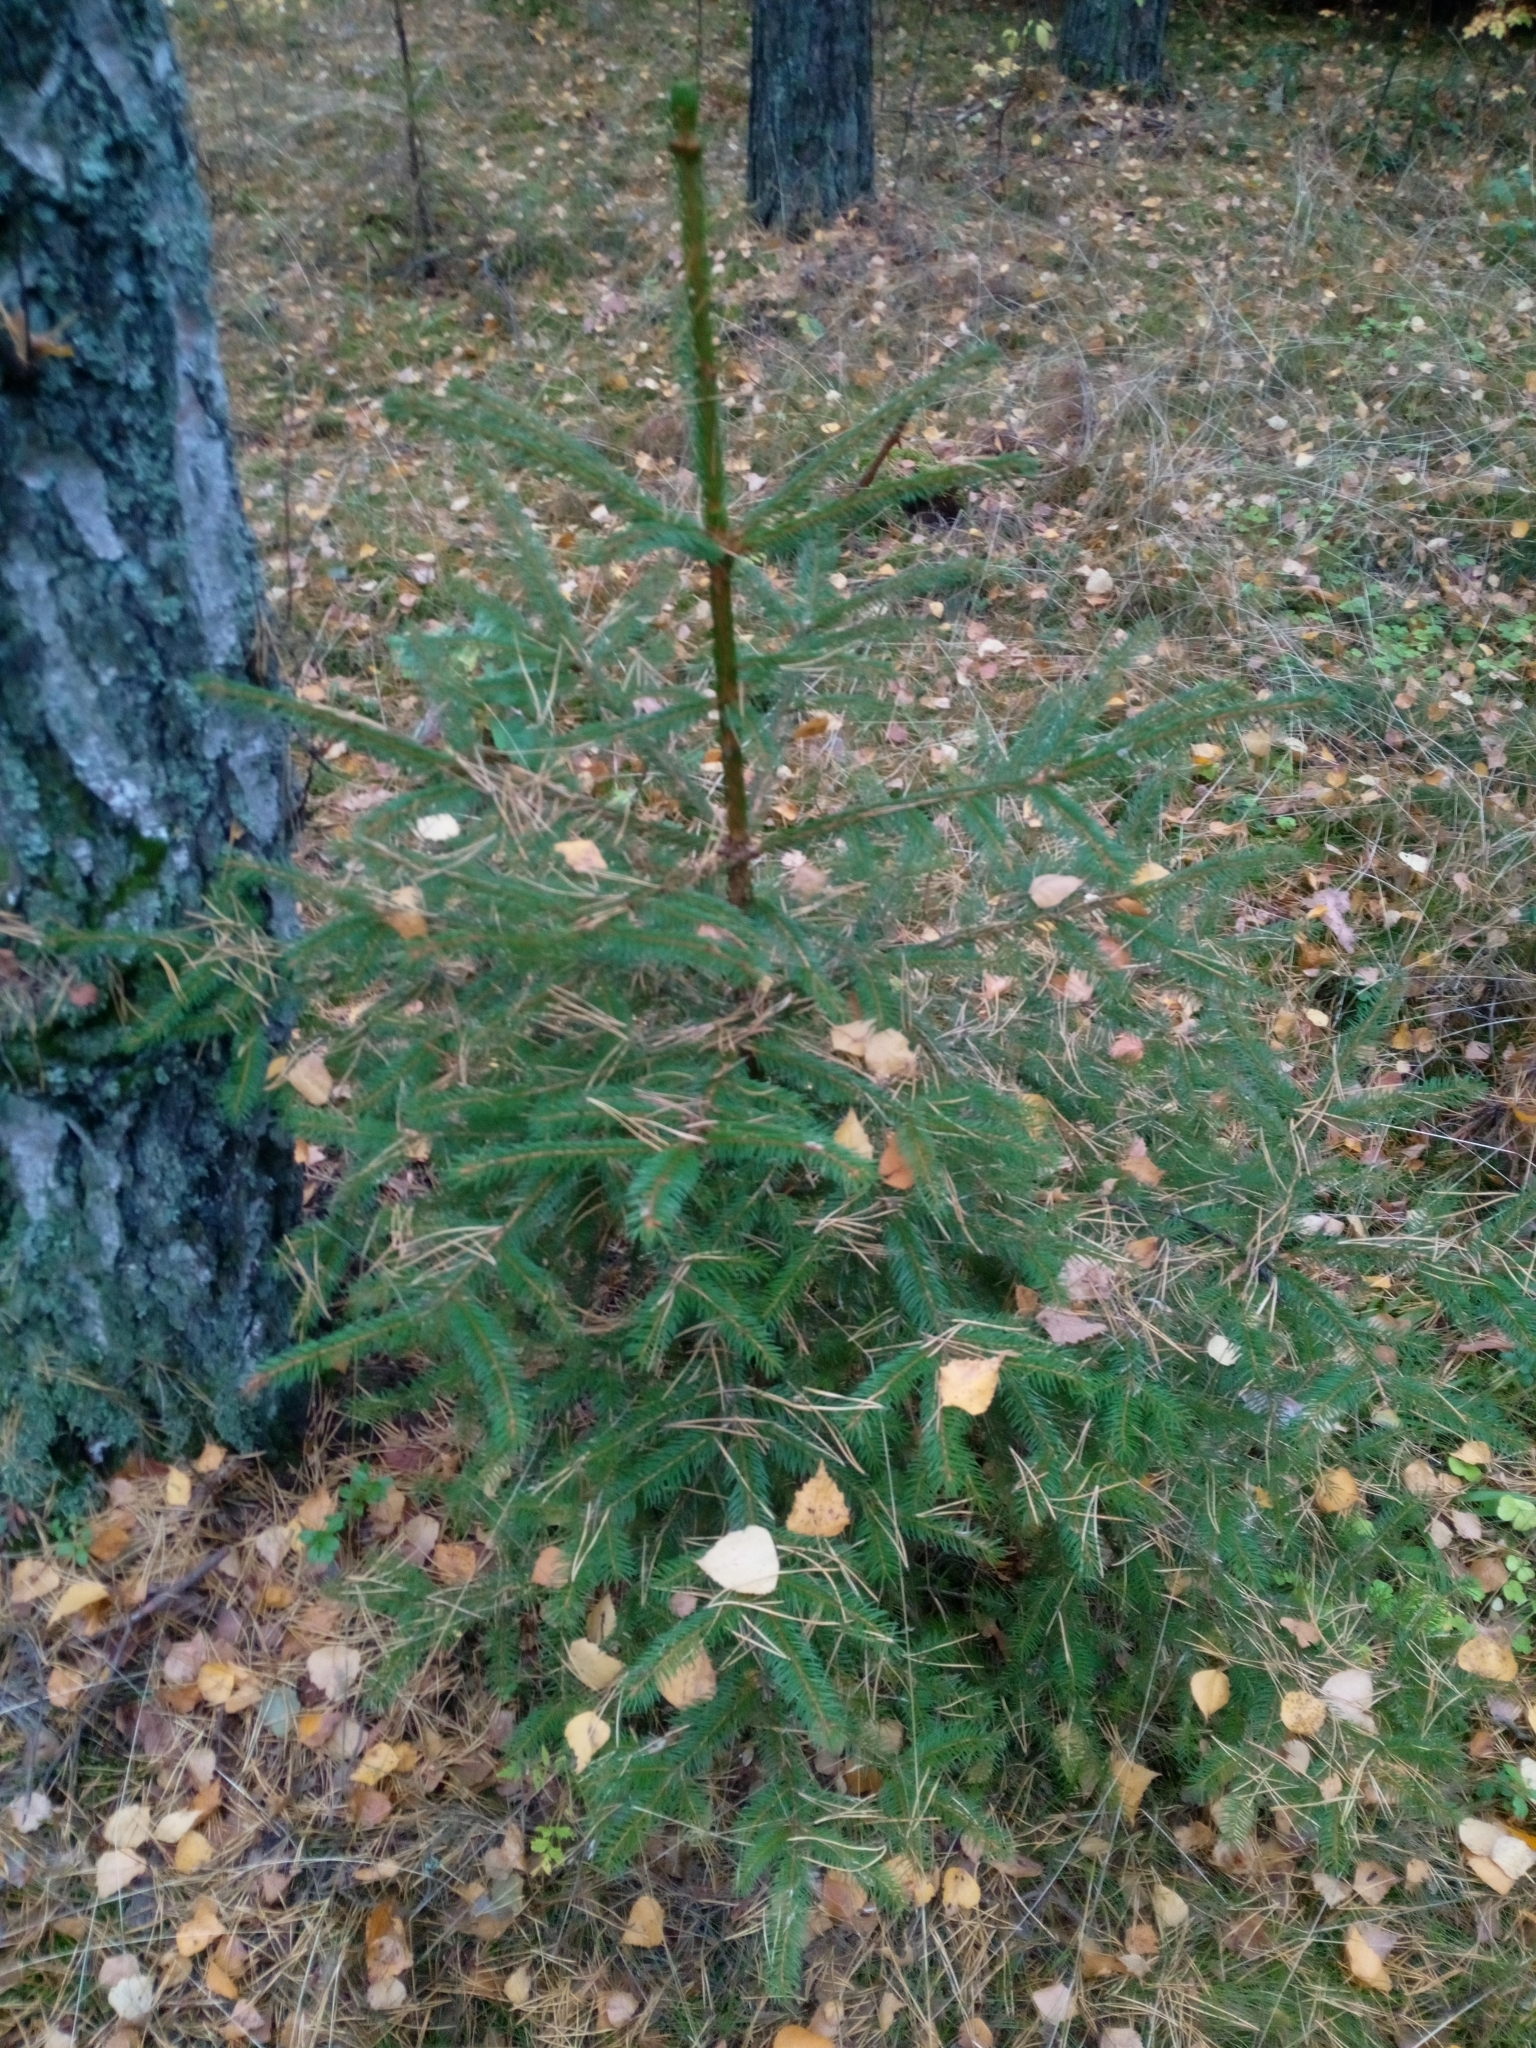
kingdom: Plantae
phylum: Tracheophyta
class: Pinopsida
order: Pinales
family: Pinaceae
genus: Picea
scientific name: Picea abies
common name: Norway spruce
